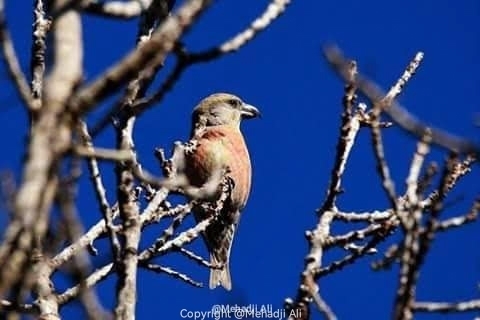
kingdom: Animalia
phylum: Chordata
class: Aves
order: Passeriformes
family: Fringillidae
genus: Loxia
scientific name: Loxia curvirostra
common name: Red crossbill
